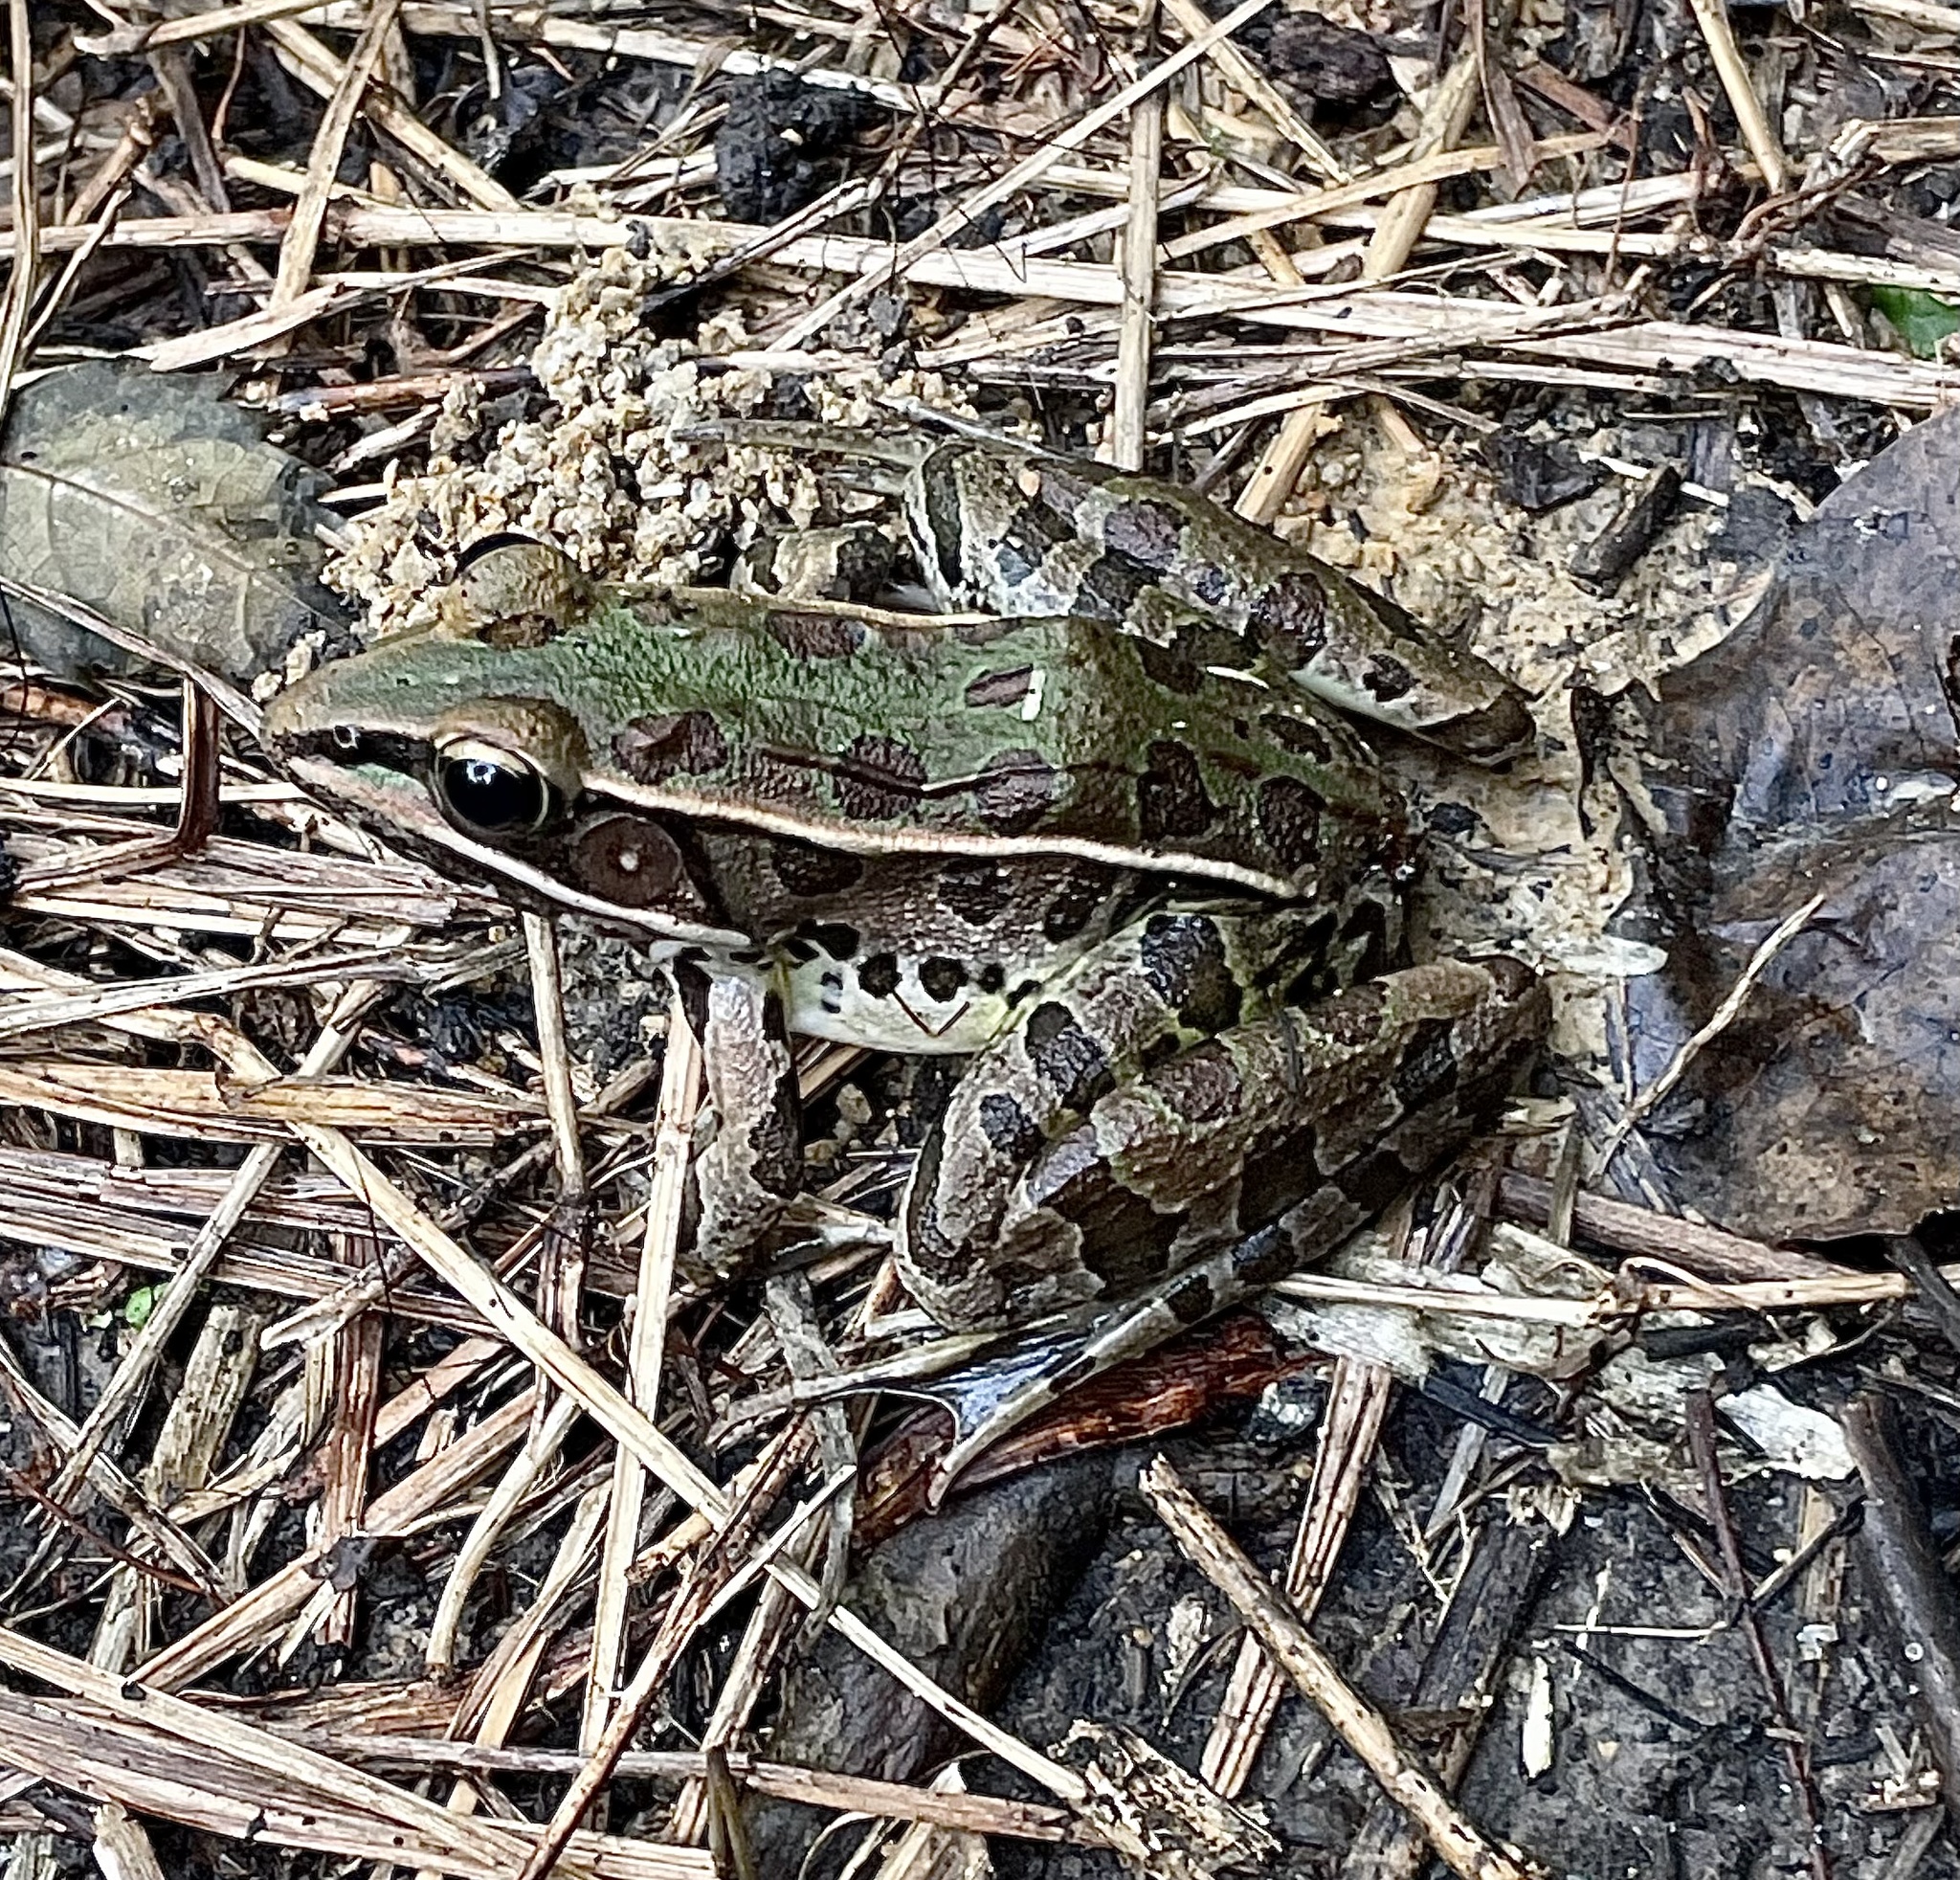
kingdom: Animalia
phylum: Chordata
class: Amphibia
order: Anura
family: Ranidae
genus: Lithobates
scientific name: Lithobates sphenocephalus
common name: Southern leopard frog
